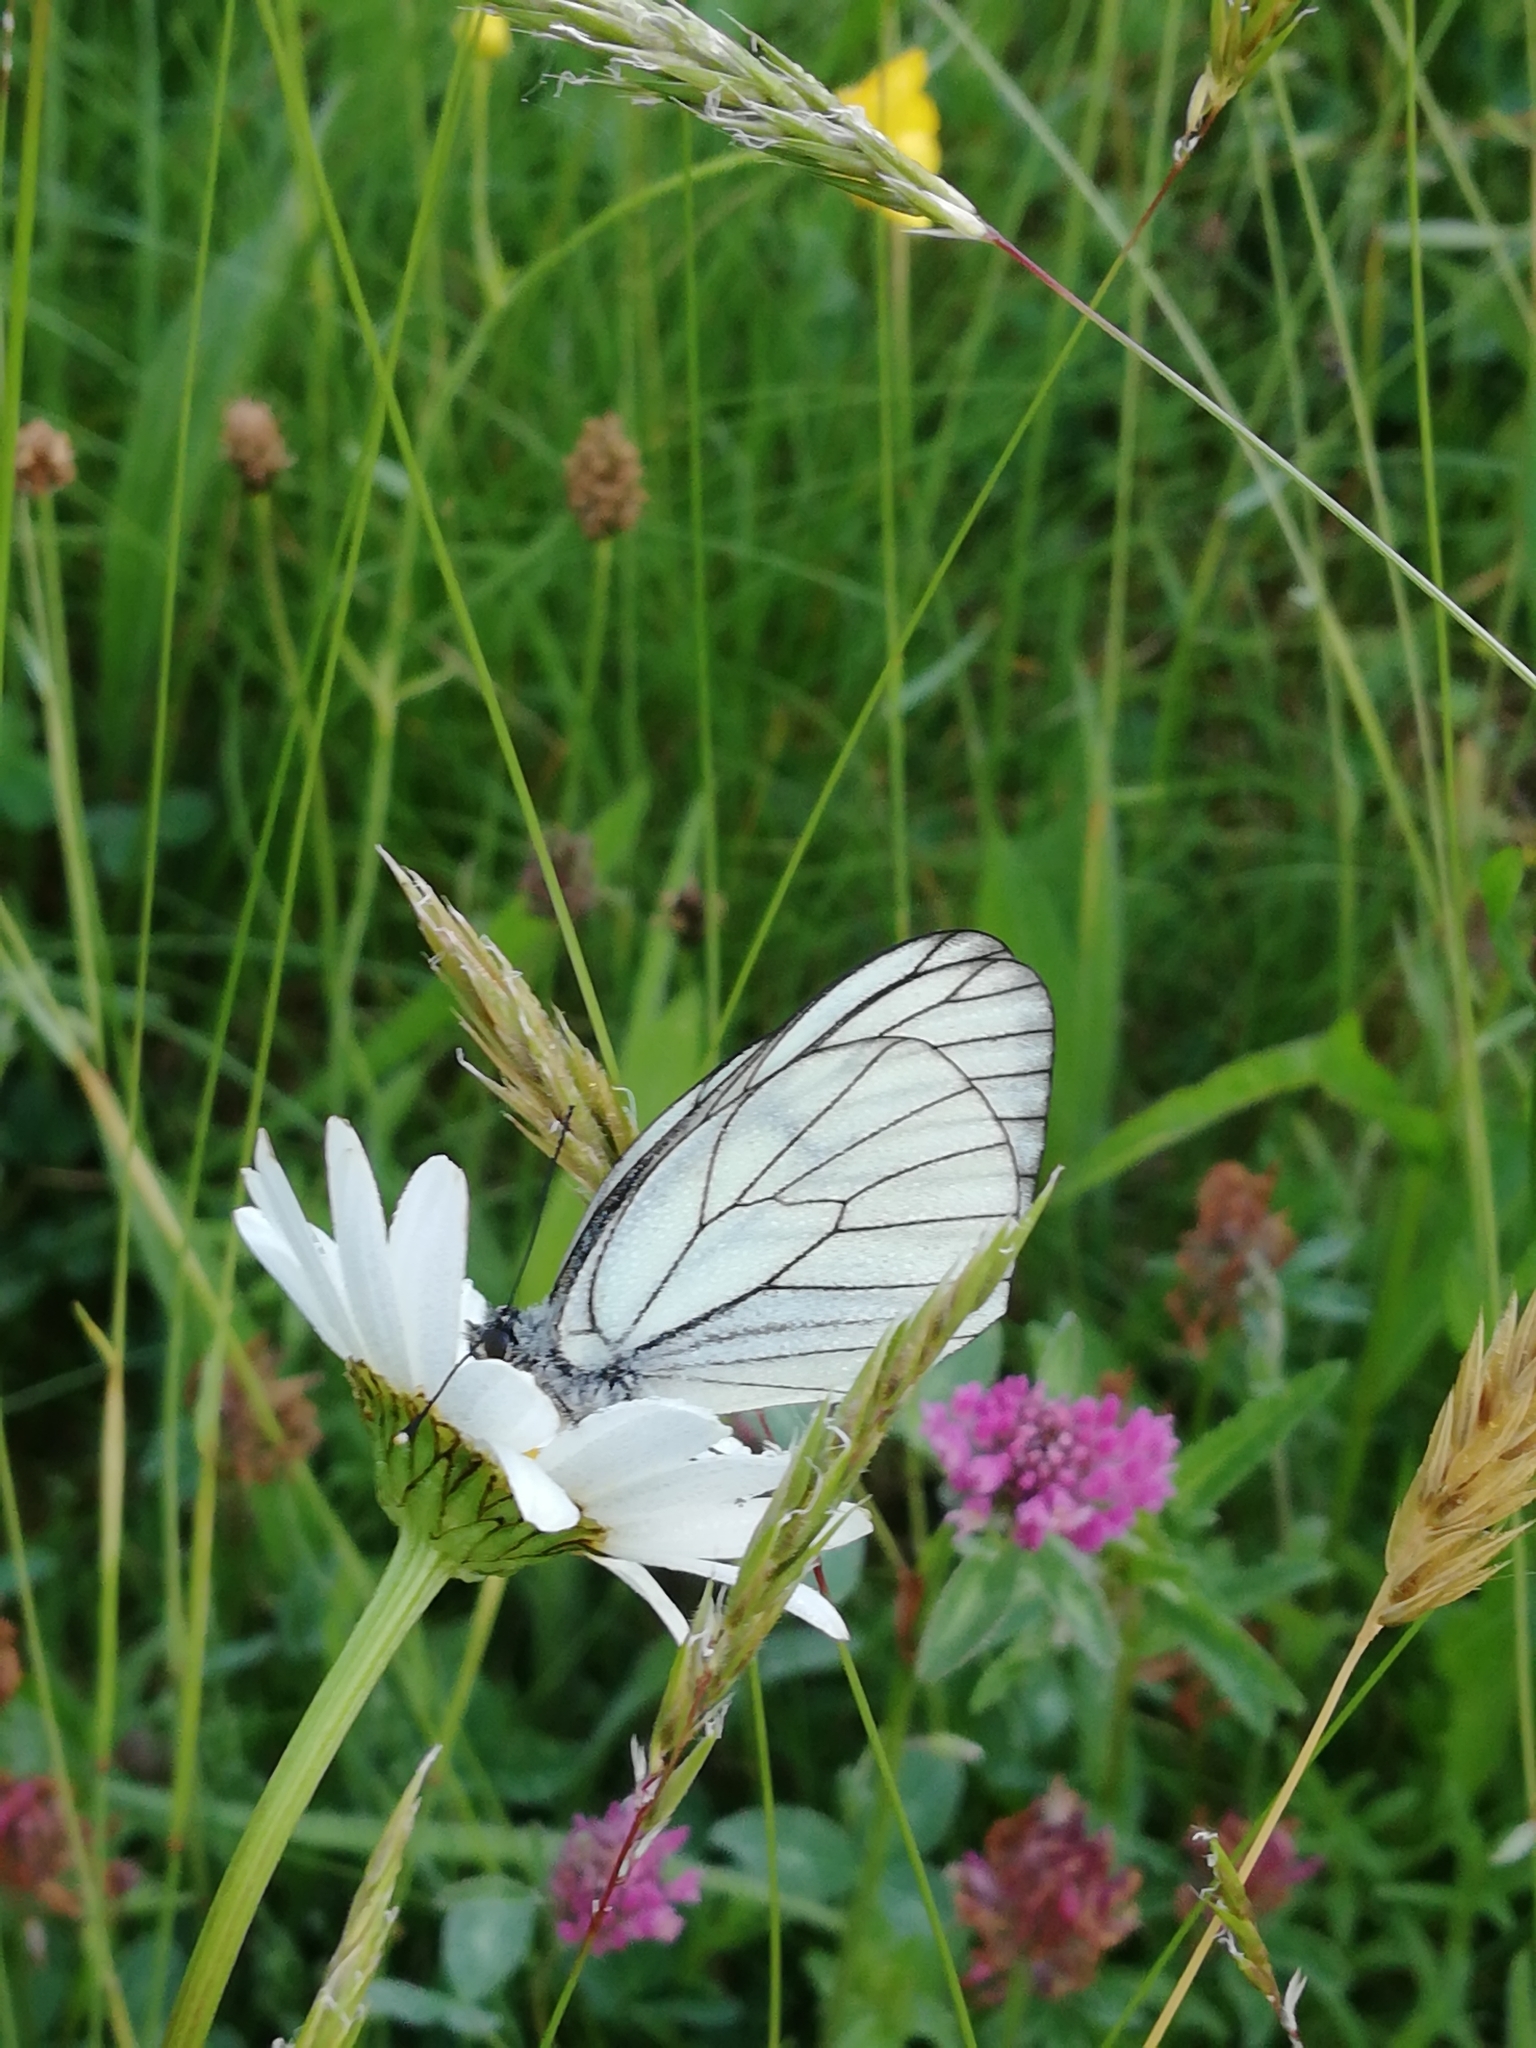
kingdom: Animalia
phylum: Arthropoda
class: Insecta
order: Lepidoptera
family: Pieridae
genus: Aporia
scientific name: Aporia crataegi
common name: Black-veined white
